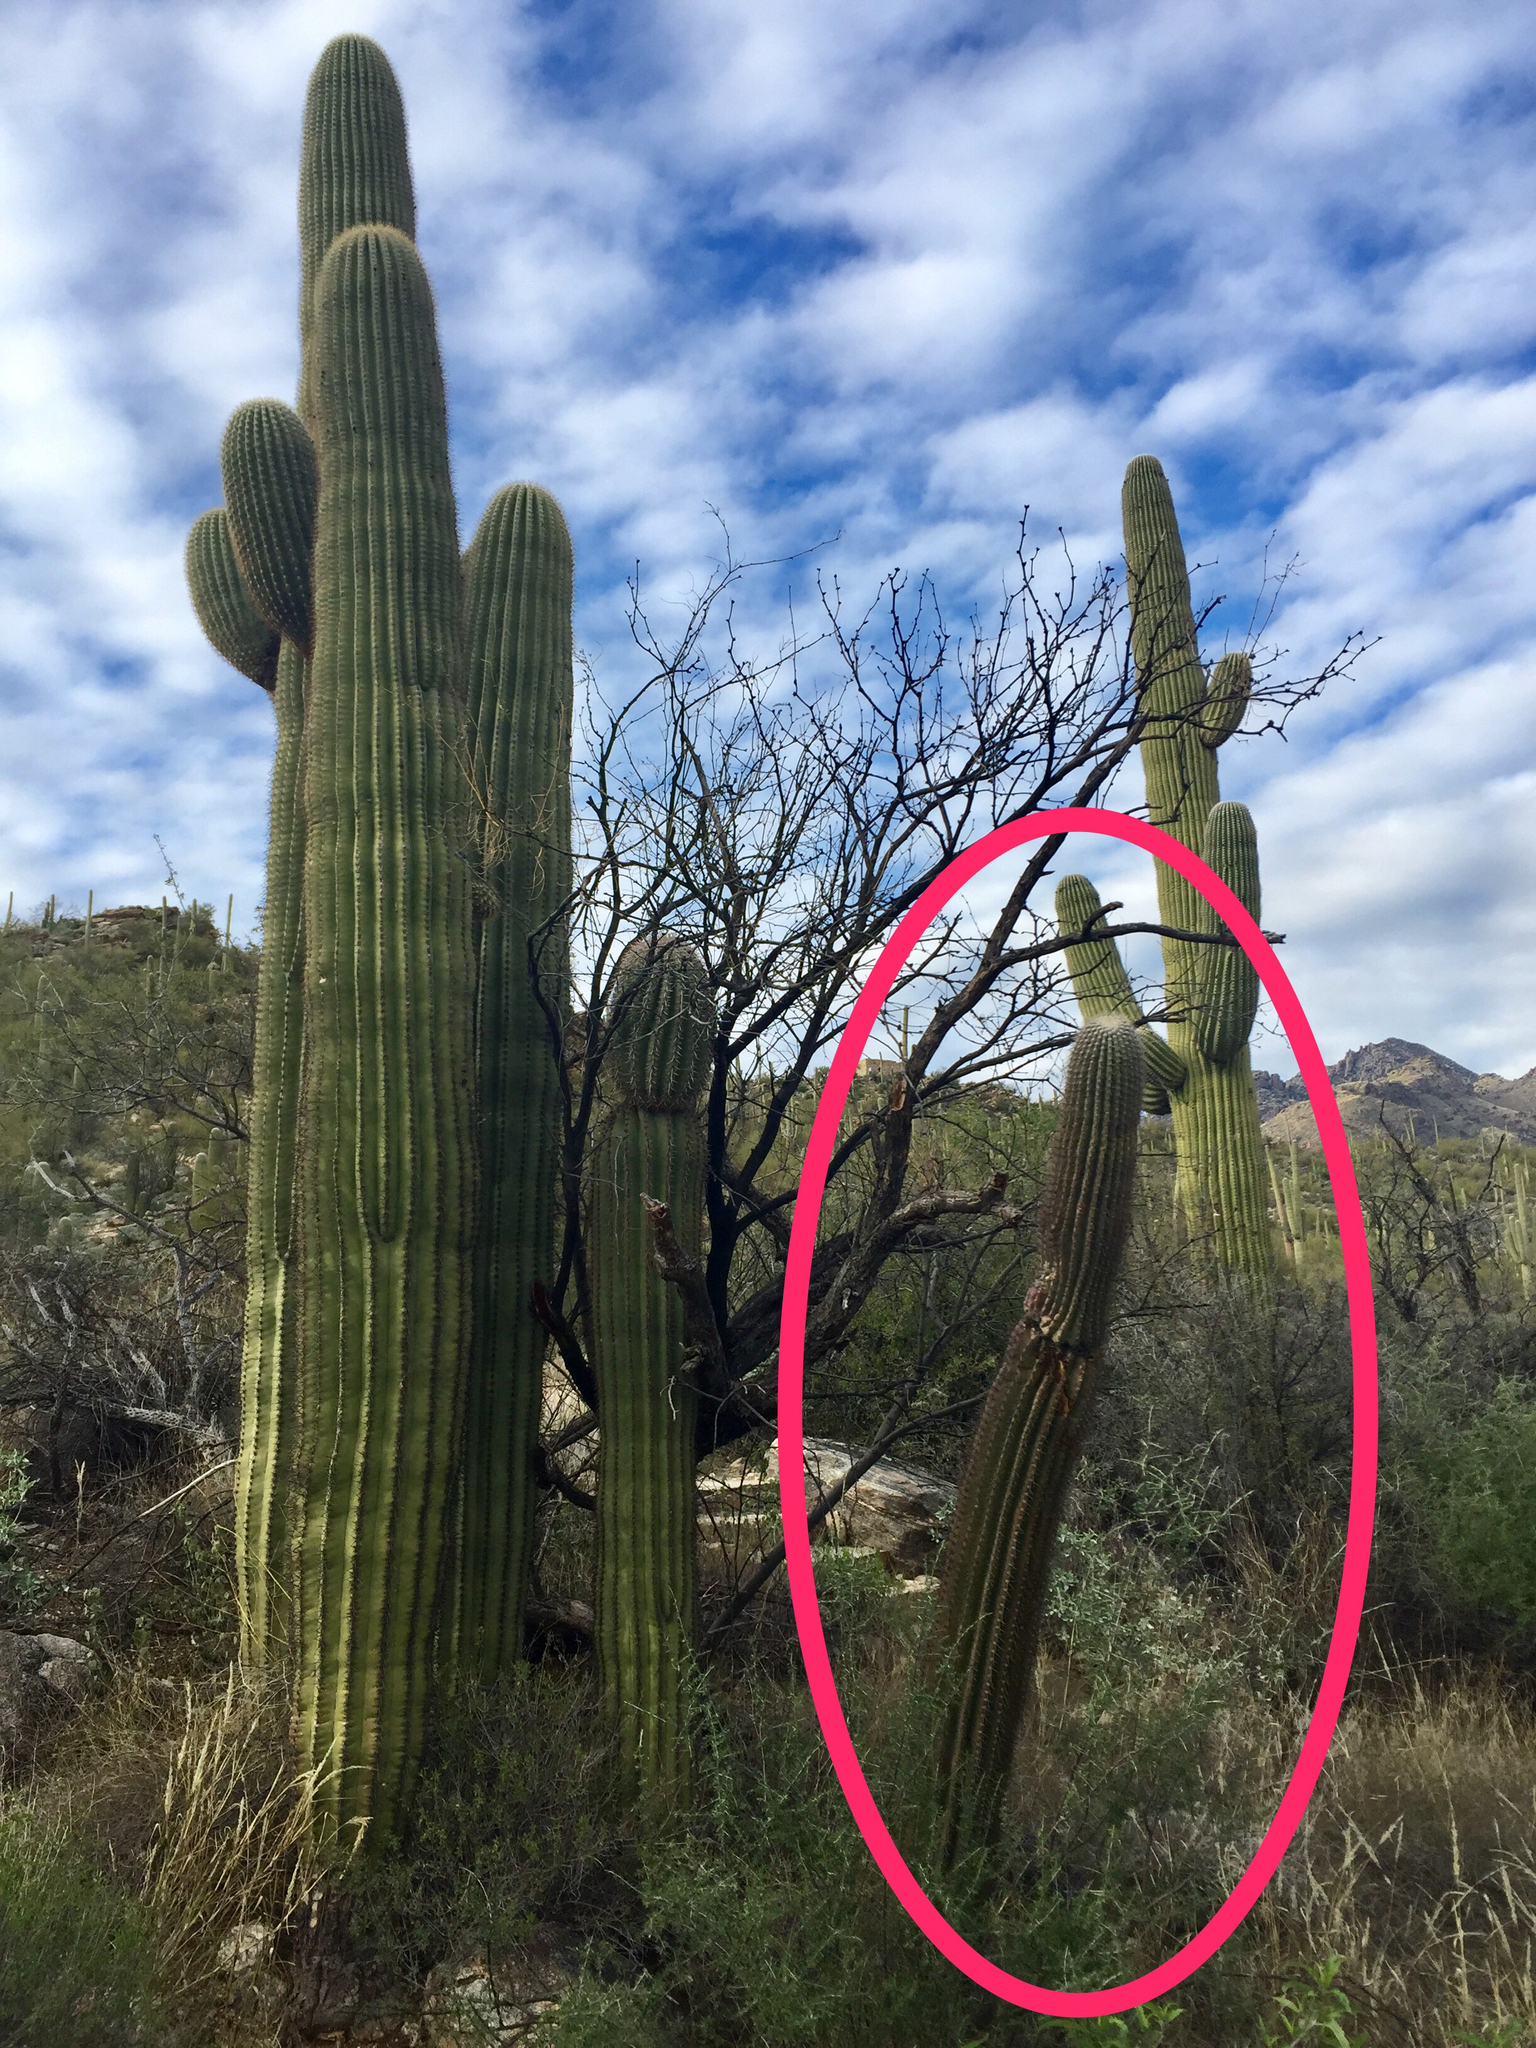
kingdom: Plantae
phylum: Tracheophyta
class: Magnoliopsida
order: Caryophyllales
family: Cactaceae
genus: Carnegiea
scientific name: Carnegiea gigantea
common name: Saguaro
